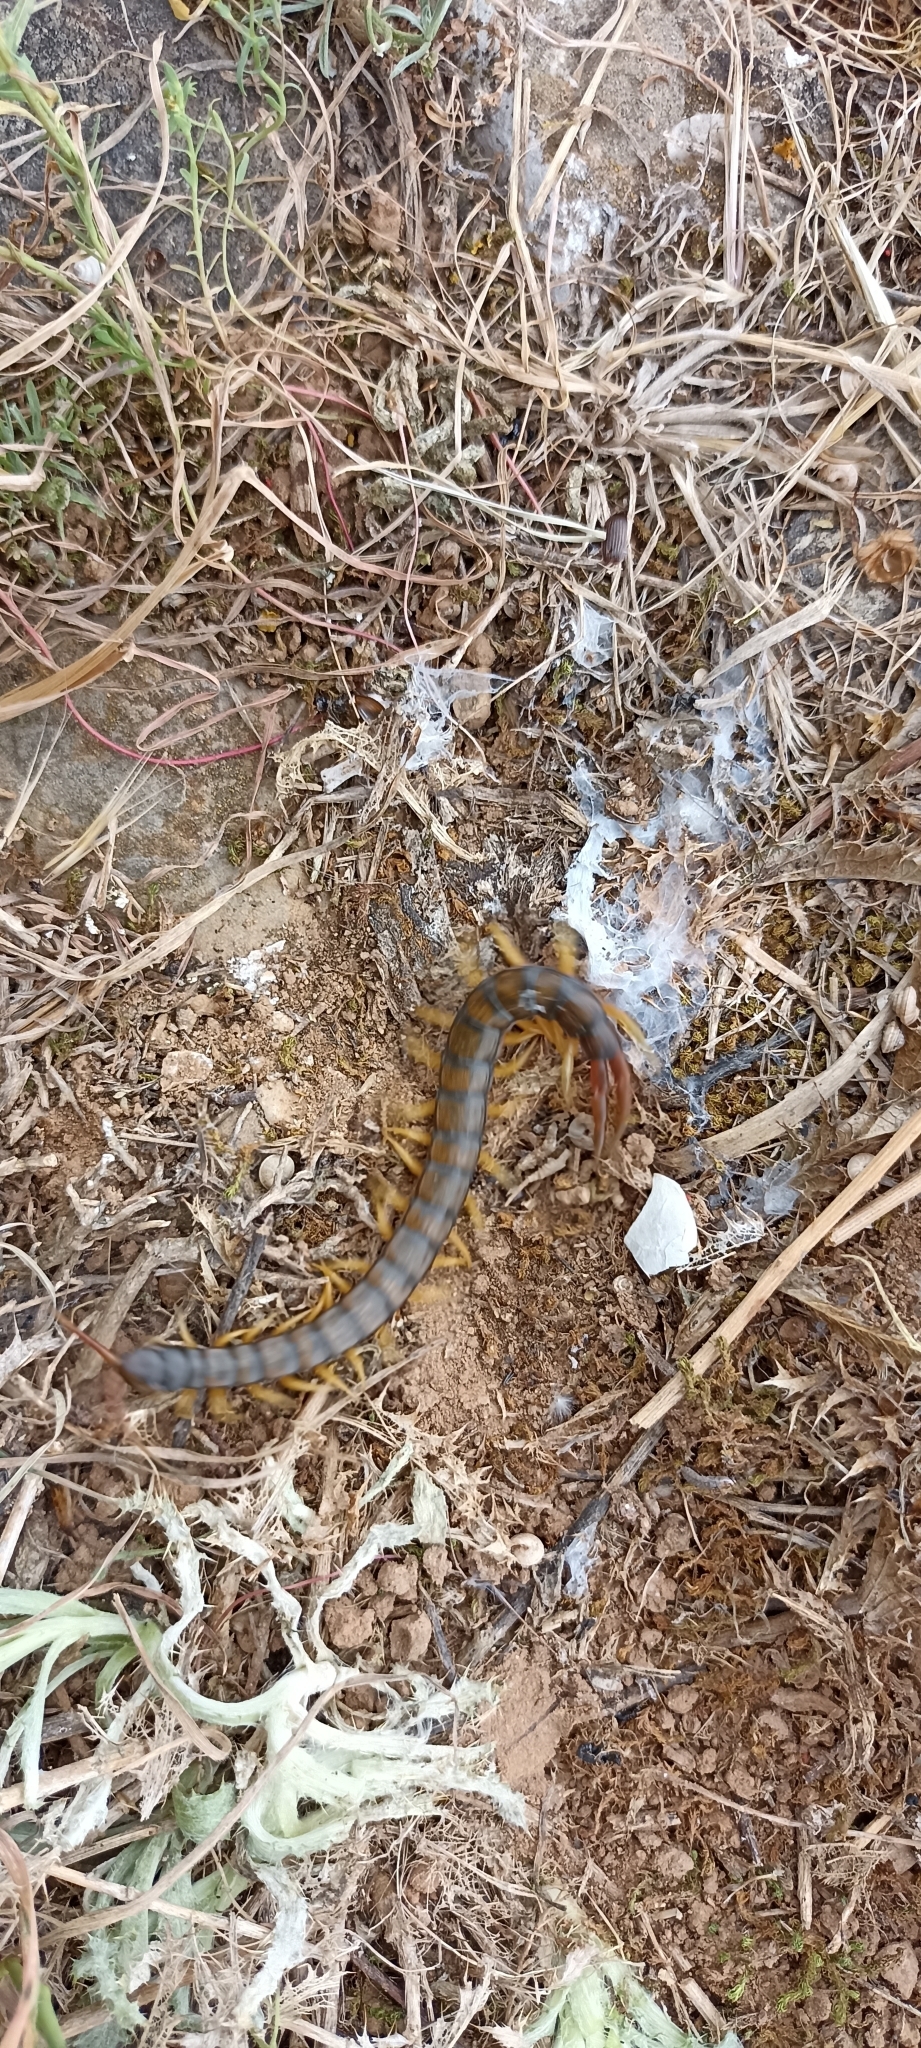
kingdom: Animalia
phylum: Arthropoda
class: Chilopoda
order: Scolopendromorpha
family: Scolopendridae
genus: Scolopendra
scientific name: Scolopendra cingulata
